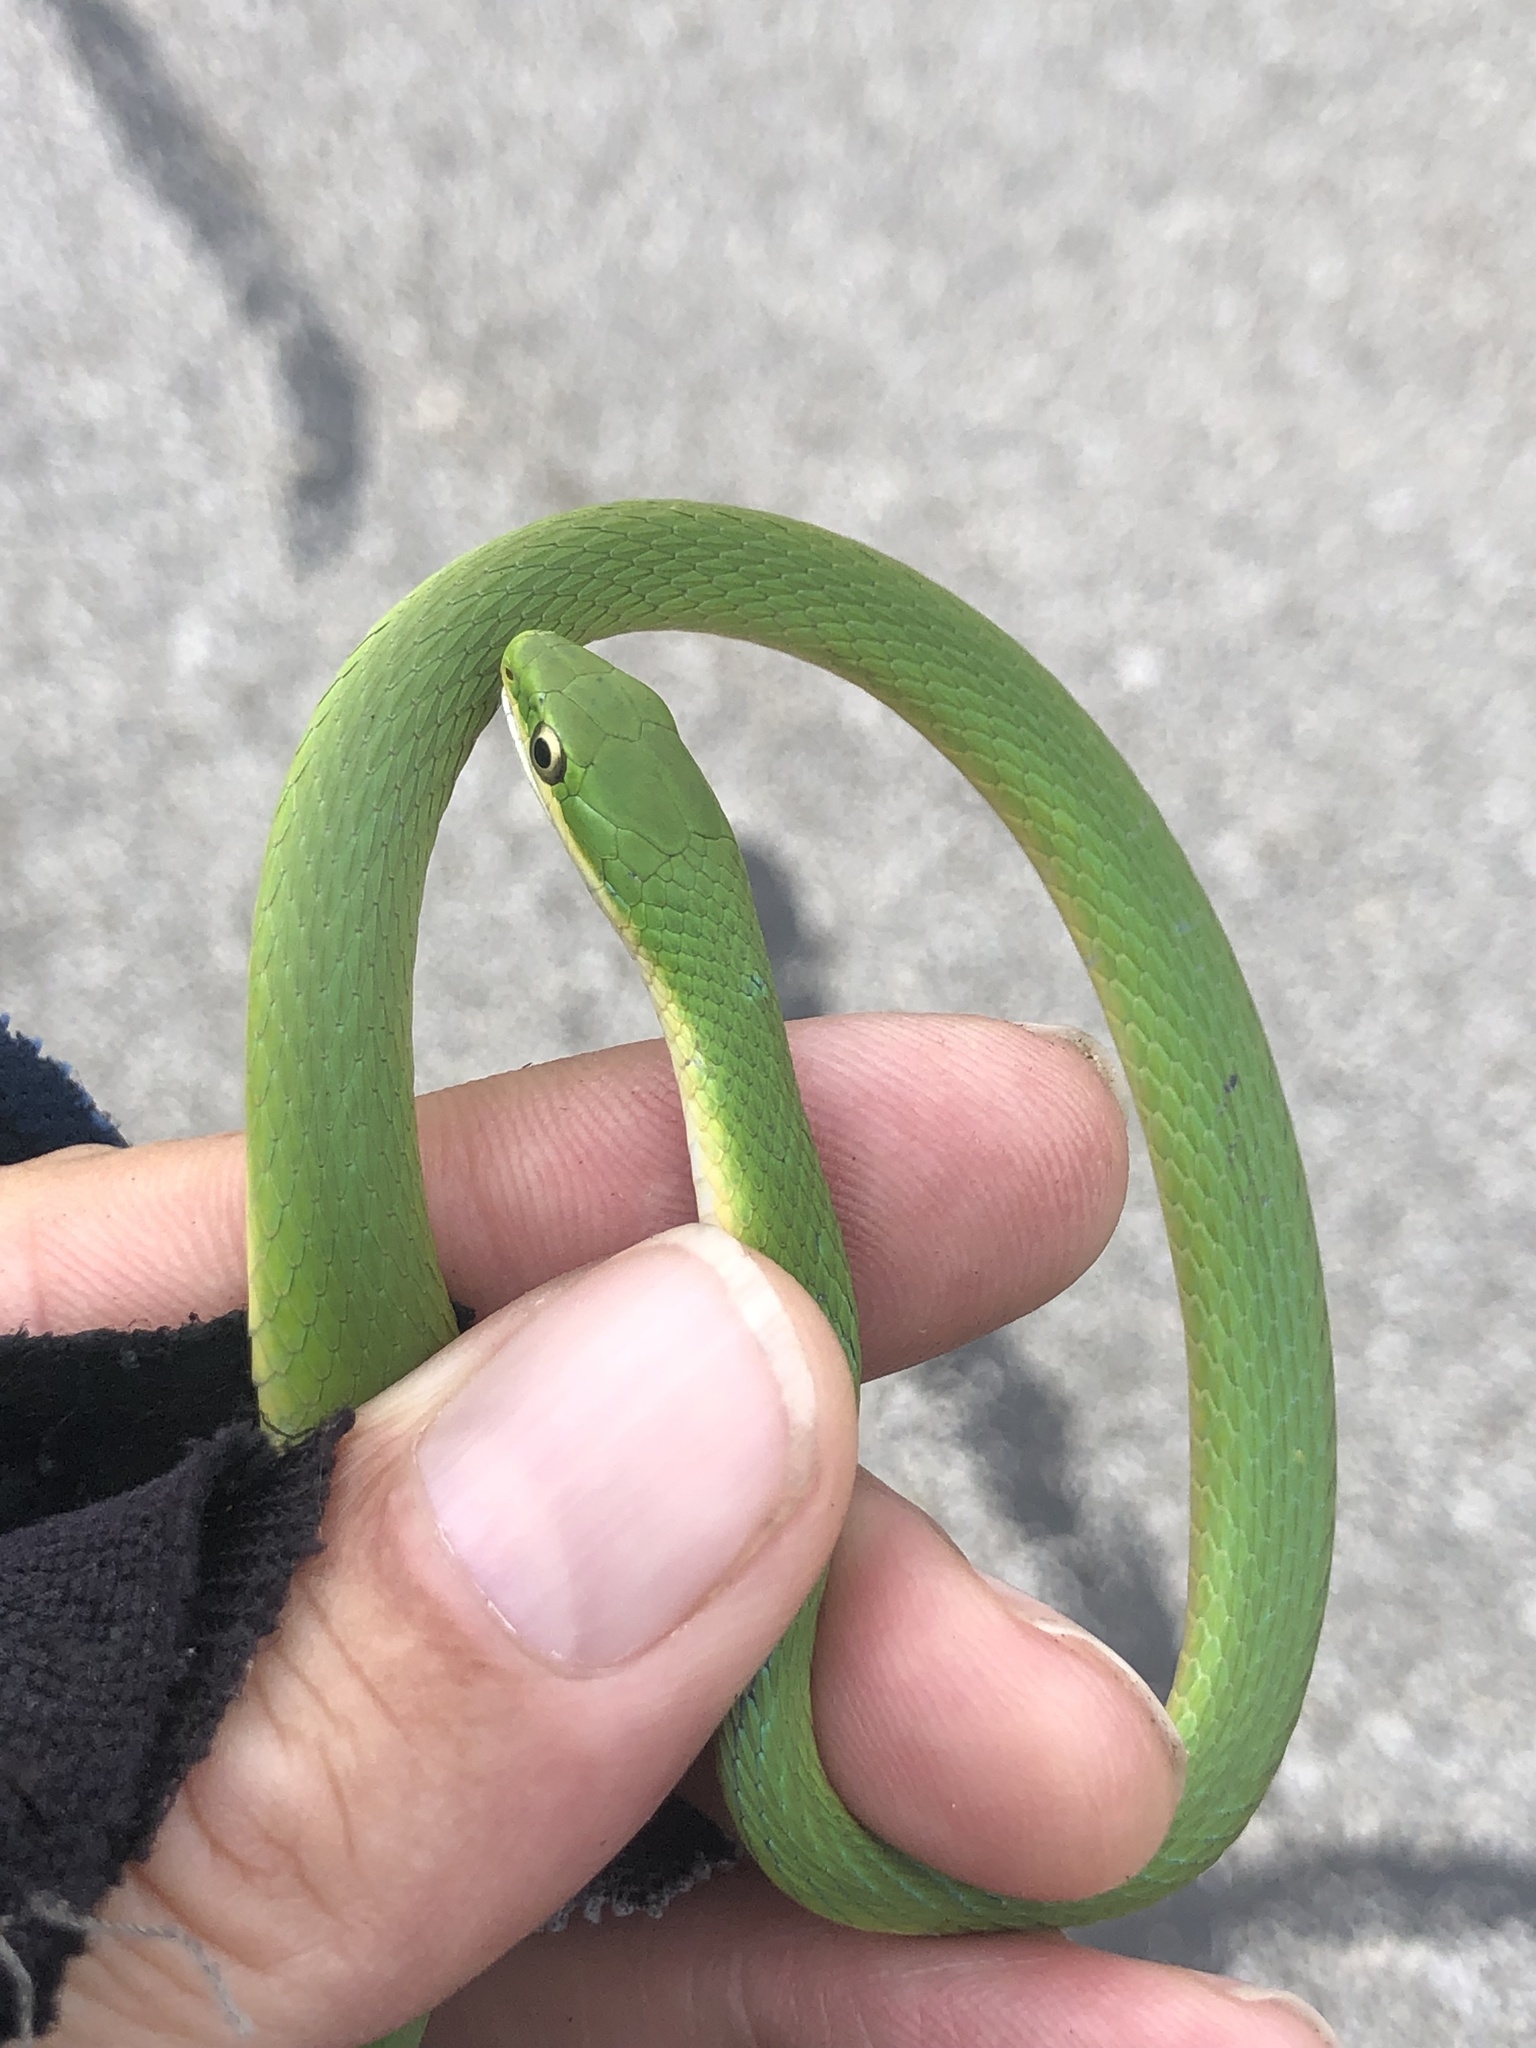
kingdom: Animalia
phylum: Chordata
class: Squamata
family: Colubridae
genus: Opheodrys
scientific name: Opheodrys aestivus
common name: Rough greensnake
